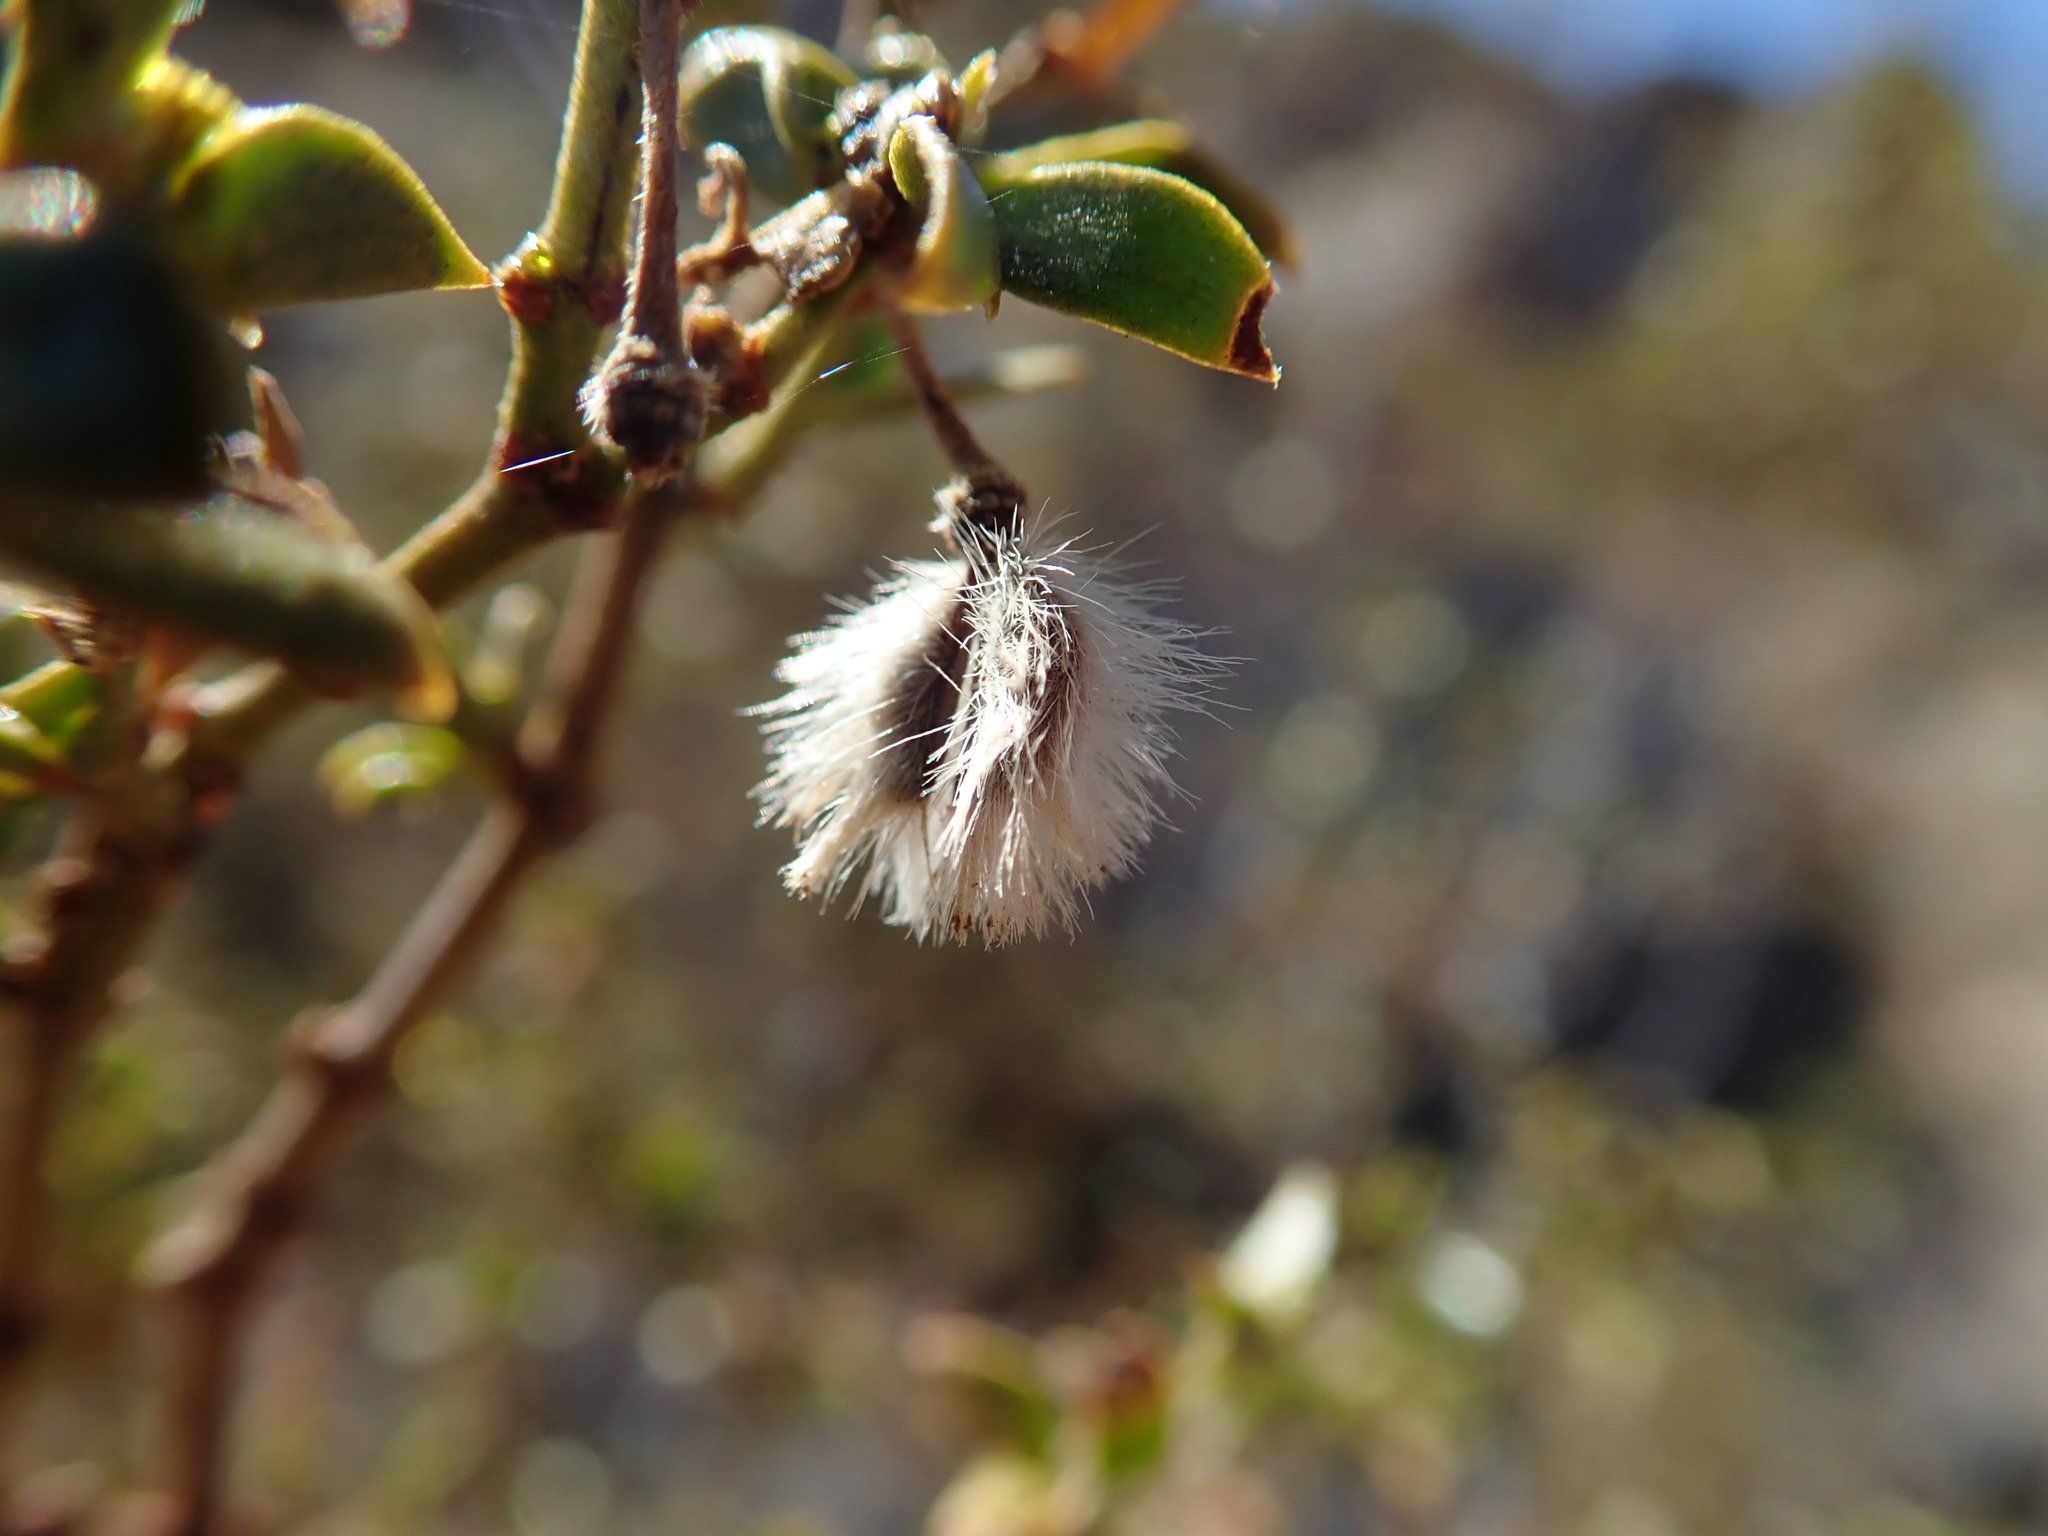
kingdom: Plantae
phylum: Tracheophyta
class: Magnoliopsida
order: Zygophyllales
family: Zygophyllaceae
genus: Larrea
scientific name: Larrea tridentata
